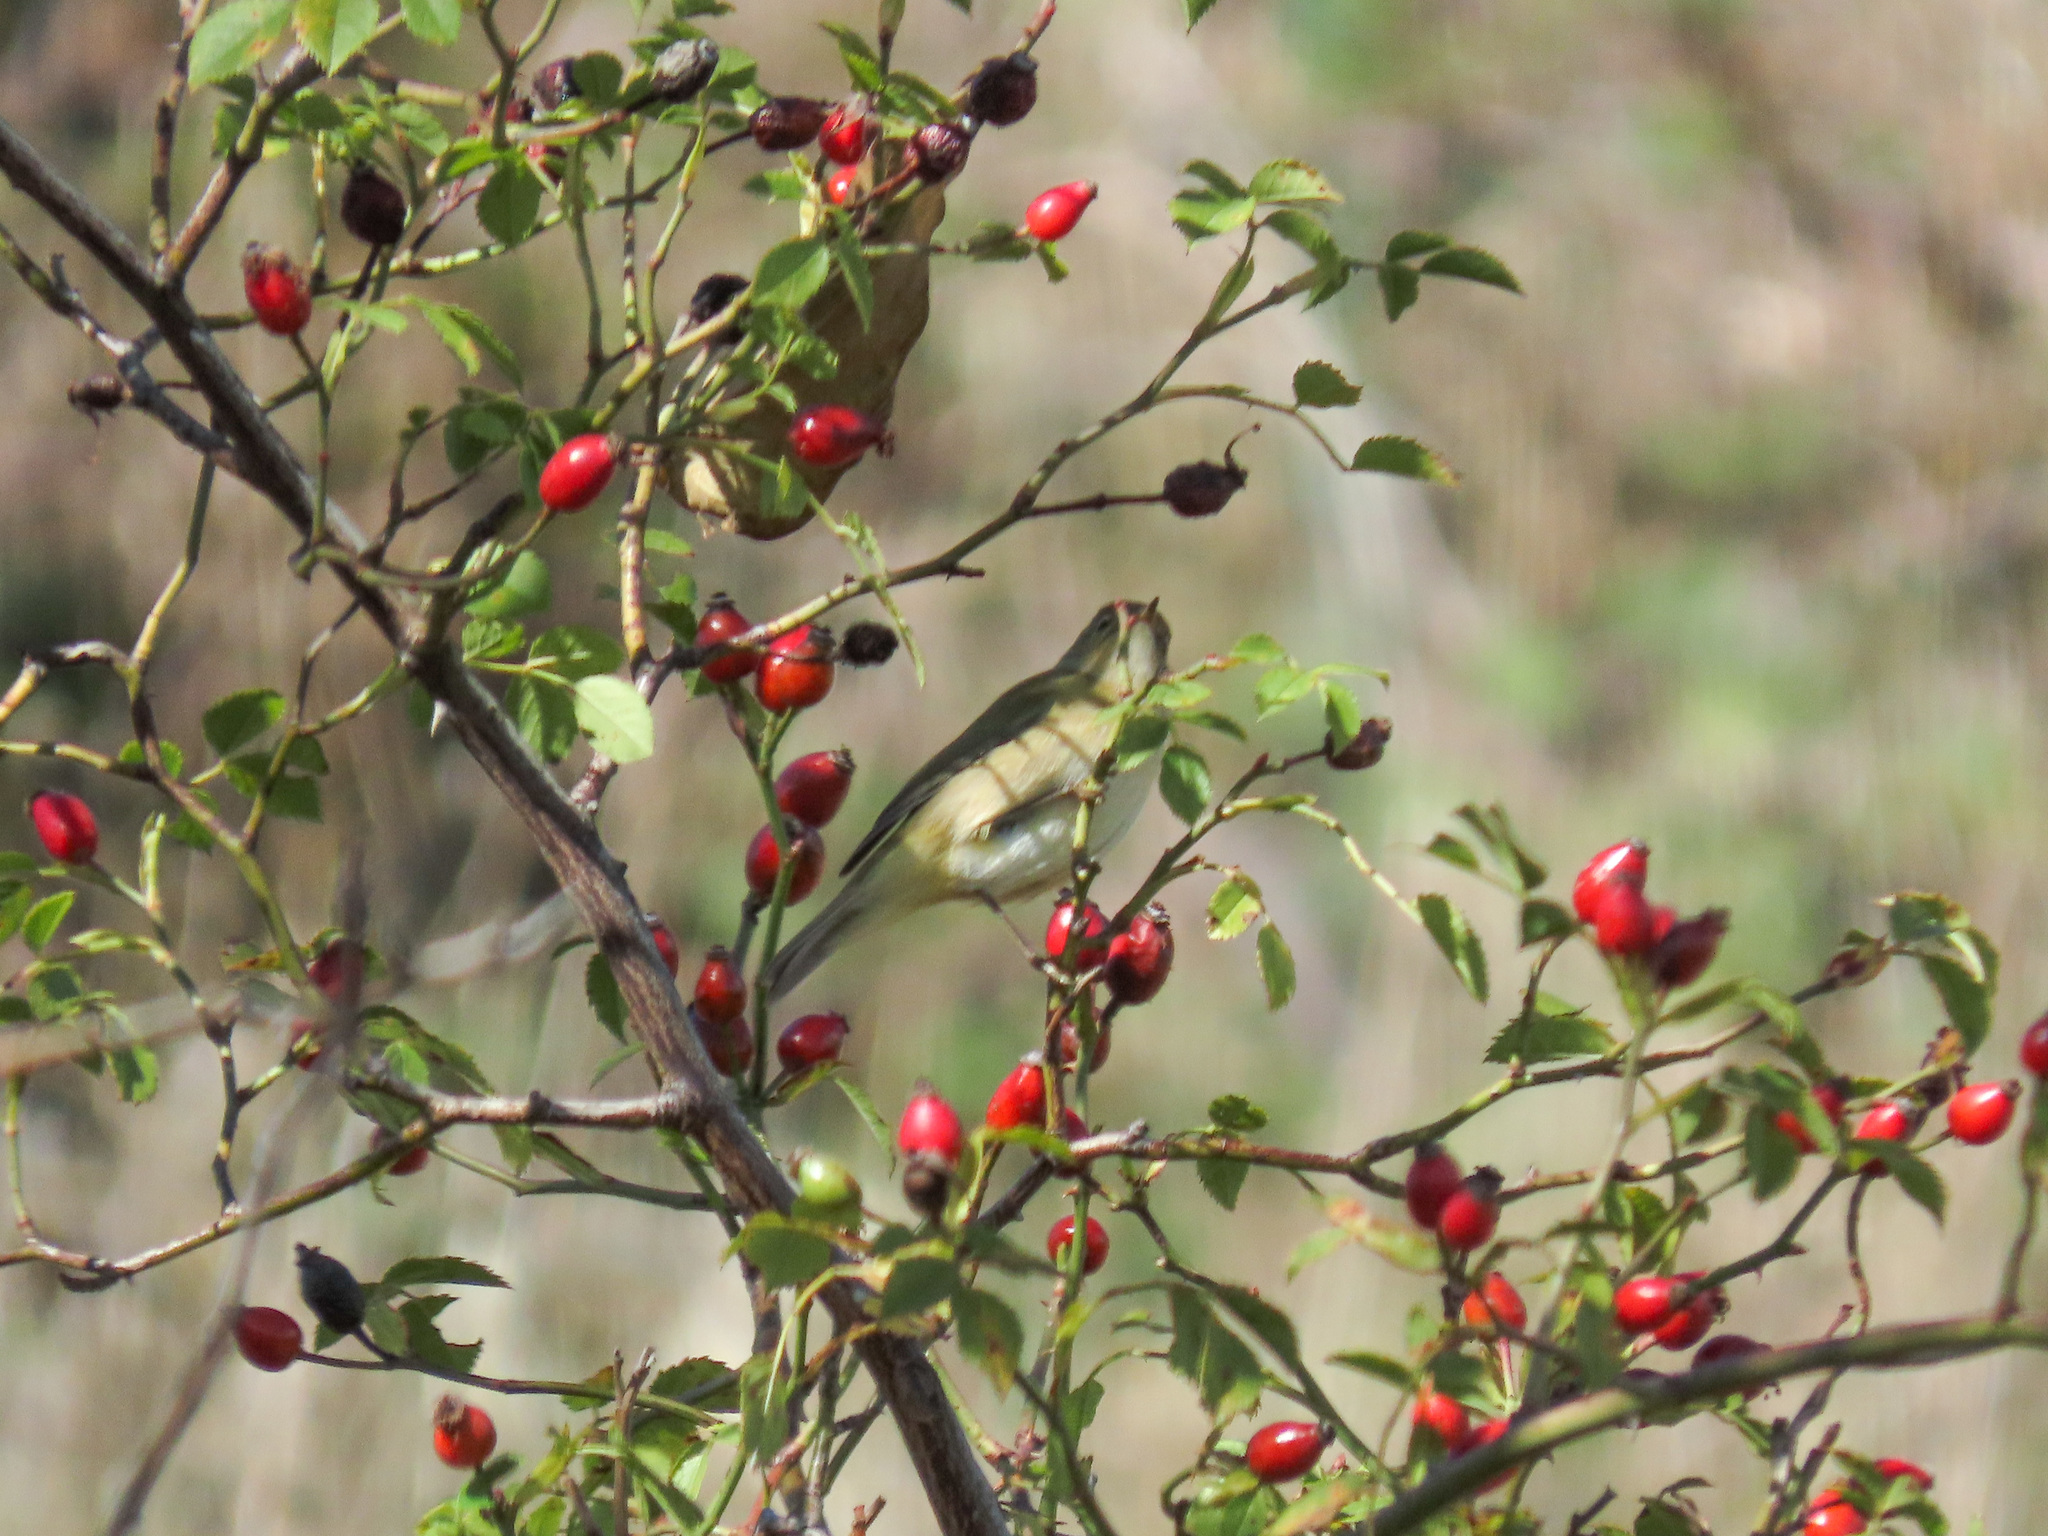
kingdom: Animalia
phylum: Chordata
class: Aves
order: Passeriformes
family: Phylloscopidae
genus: Phylloscopus
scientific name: Phylloscopus collybita
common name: Common chiffchaff
